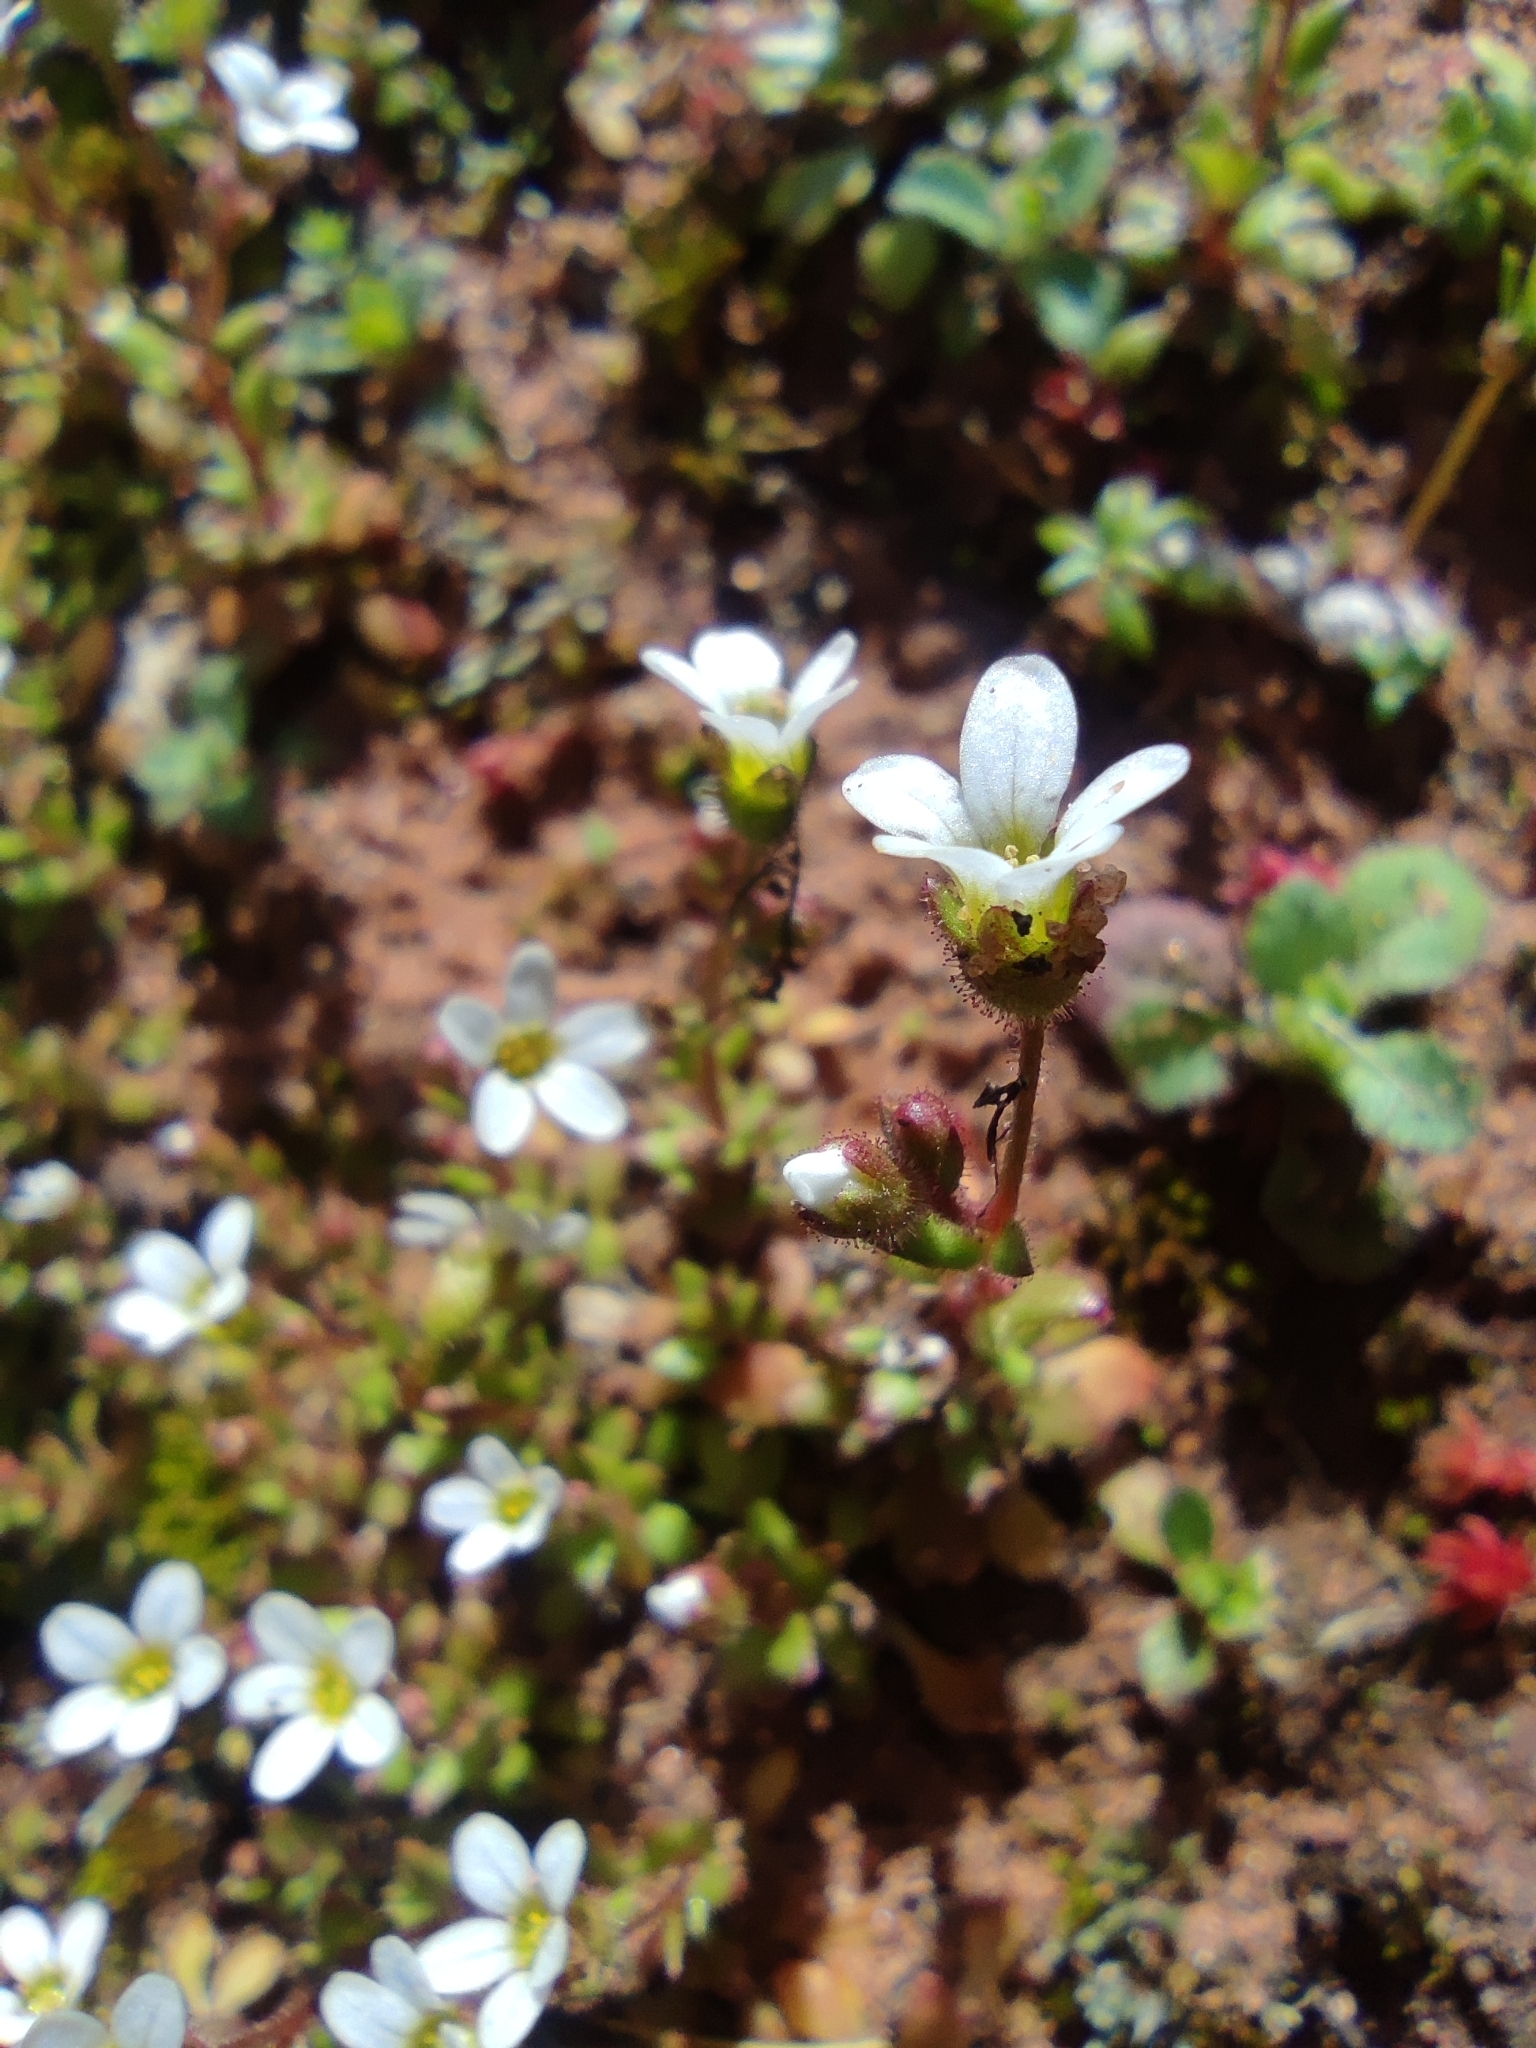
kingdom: Plantae
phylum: Tracheophyta
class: Magnoliopsida
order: Saxifragales
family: Saxifragaceae
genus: Saxifraga
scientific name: Saxifraga tridactylites
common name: Rue-leaved saxifrage
